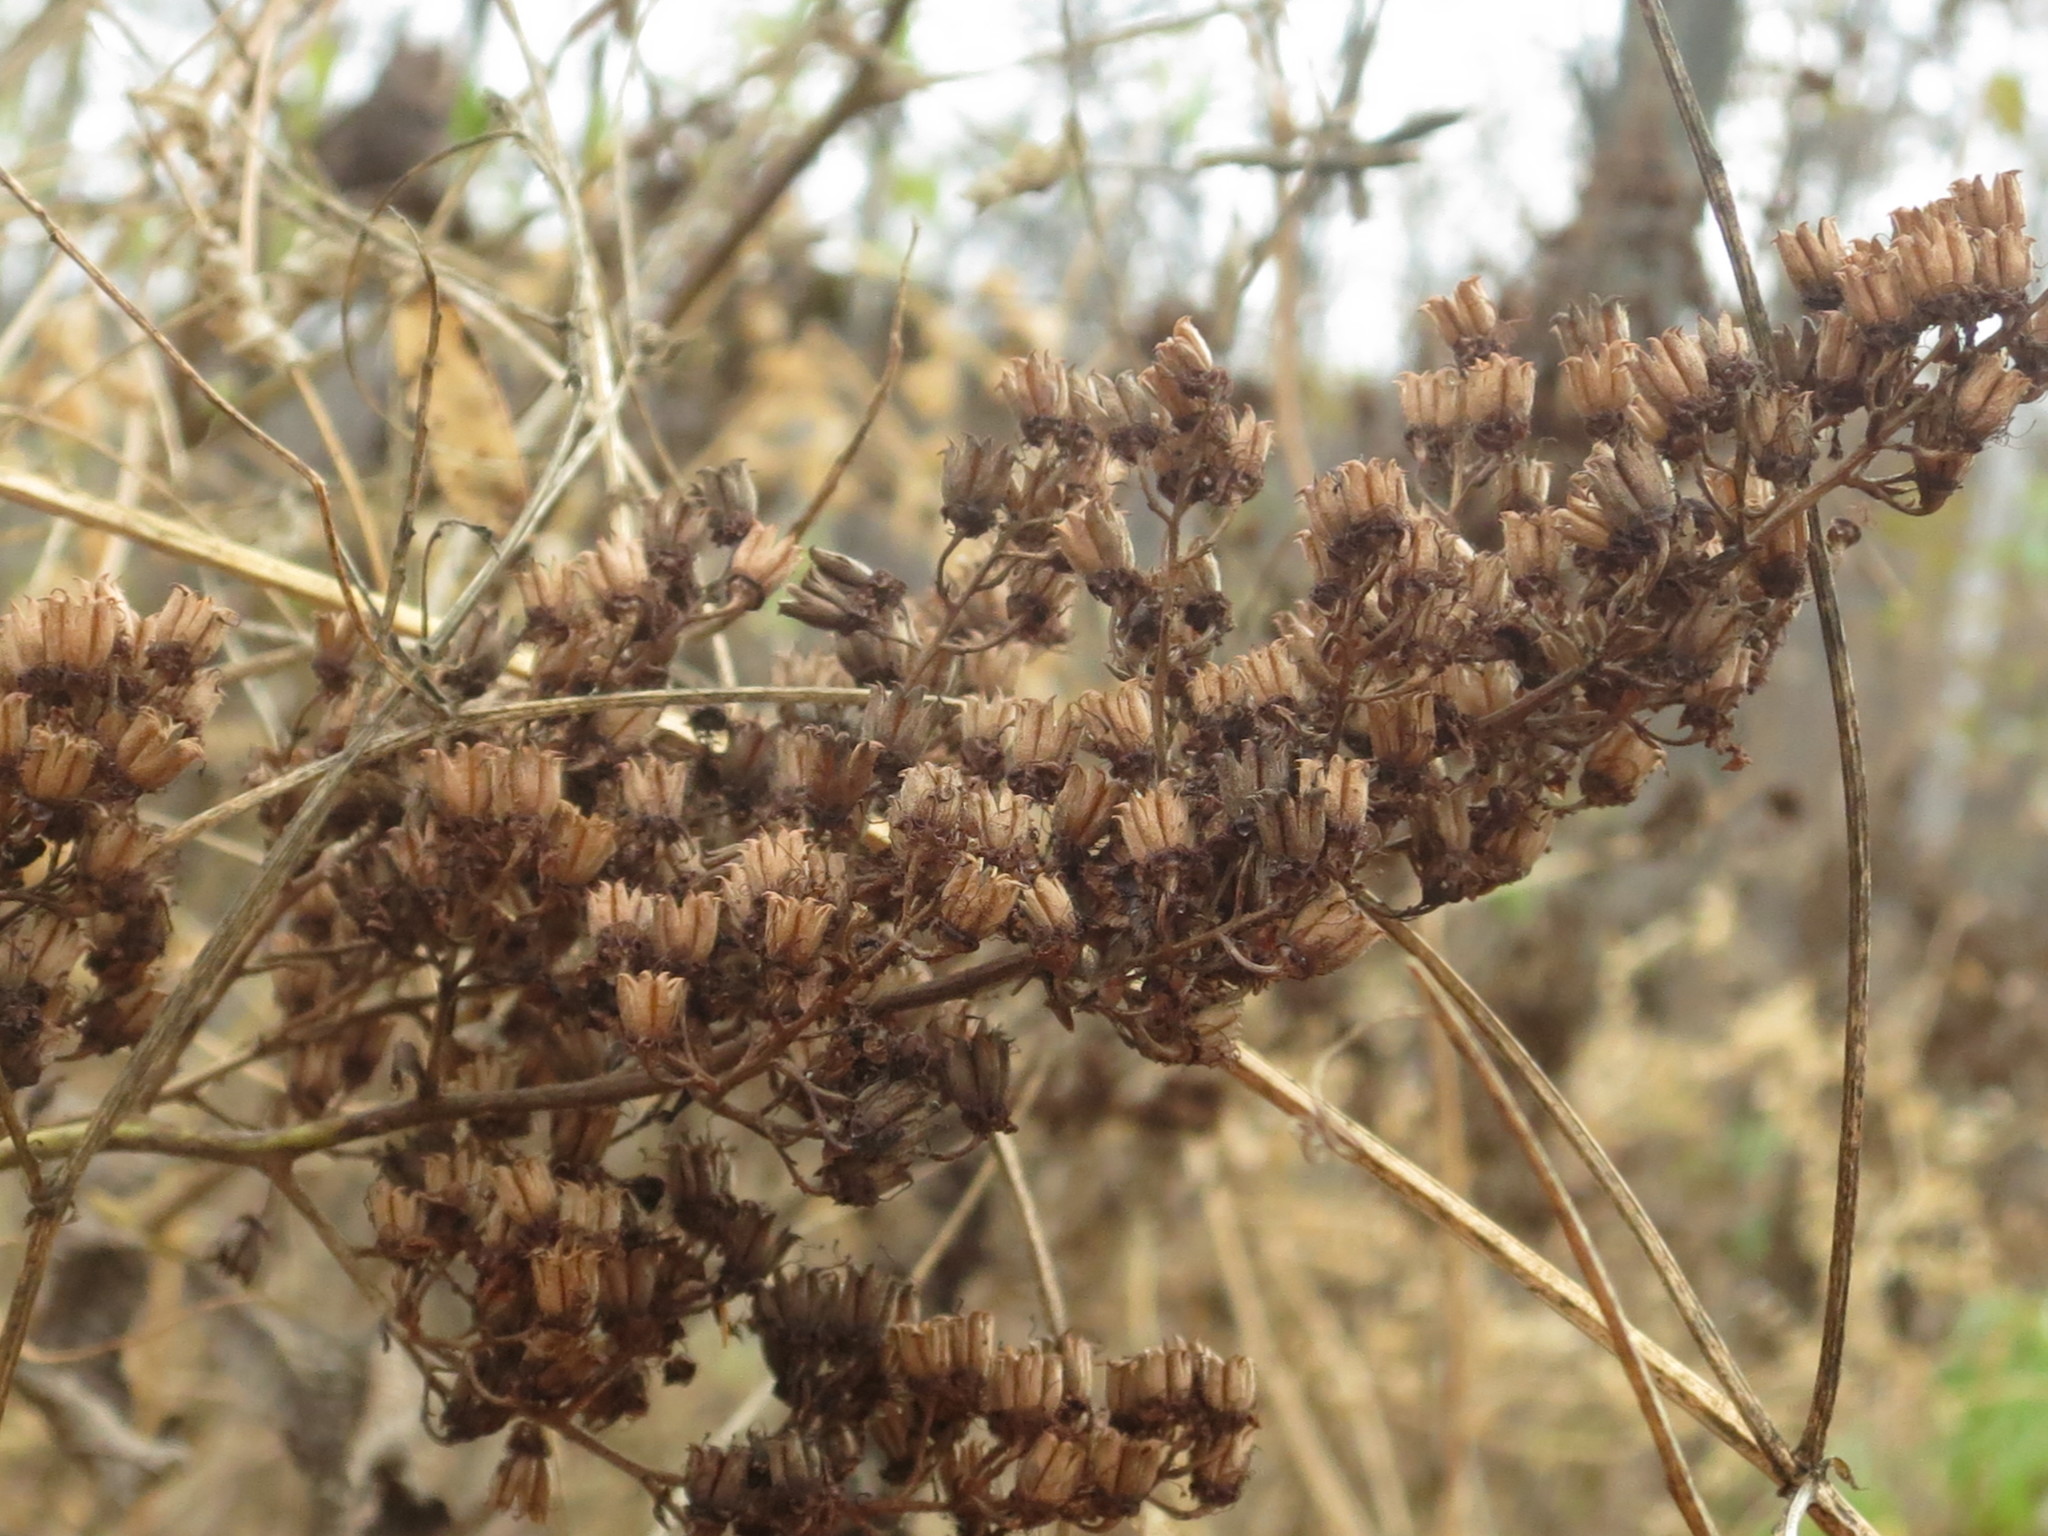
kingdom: Plantae
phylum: Tracheophyta
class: Magnoliopsida
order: Rosales
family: Rosaceae
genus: Sorbaria
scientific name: Sorbaria sorbifolia
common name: False spiraea
